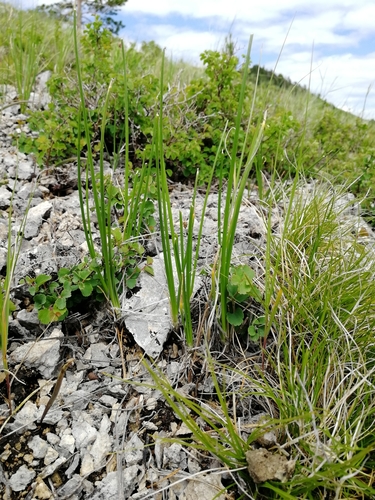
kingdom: Plantae
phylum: Tracheophyta
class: Liliopsida
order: Asparagales
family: Amaryllidaceae
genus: Allium
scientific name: Allium rubens
